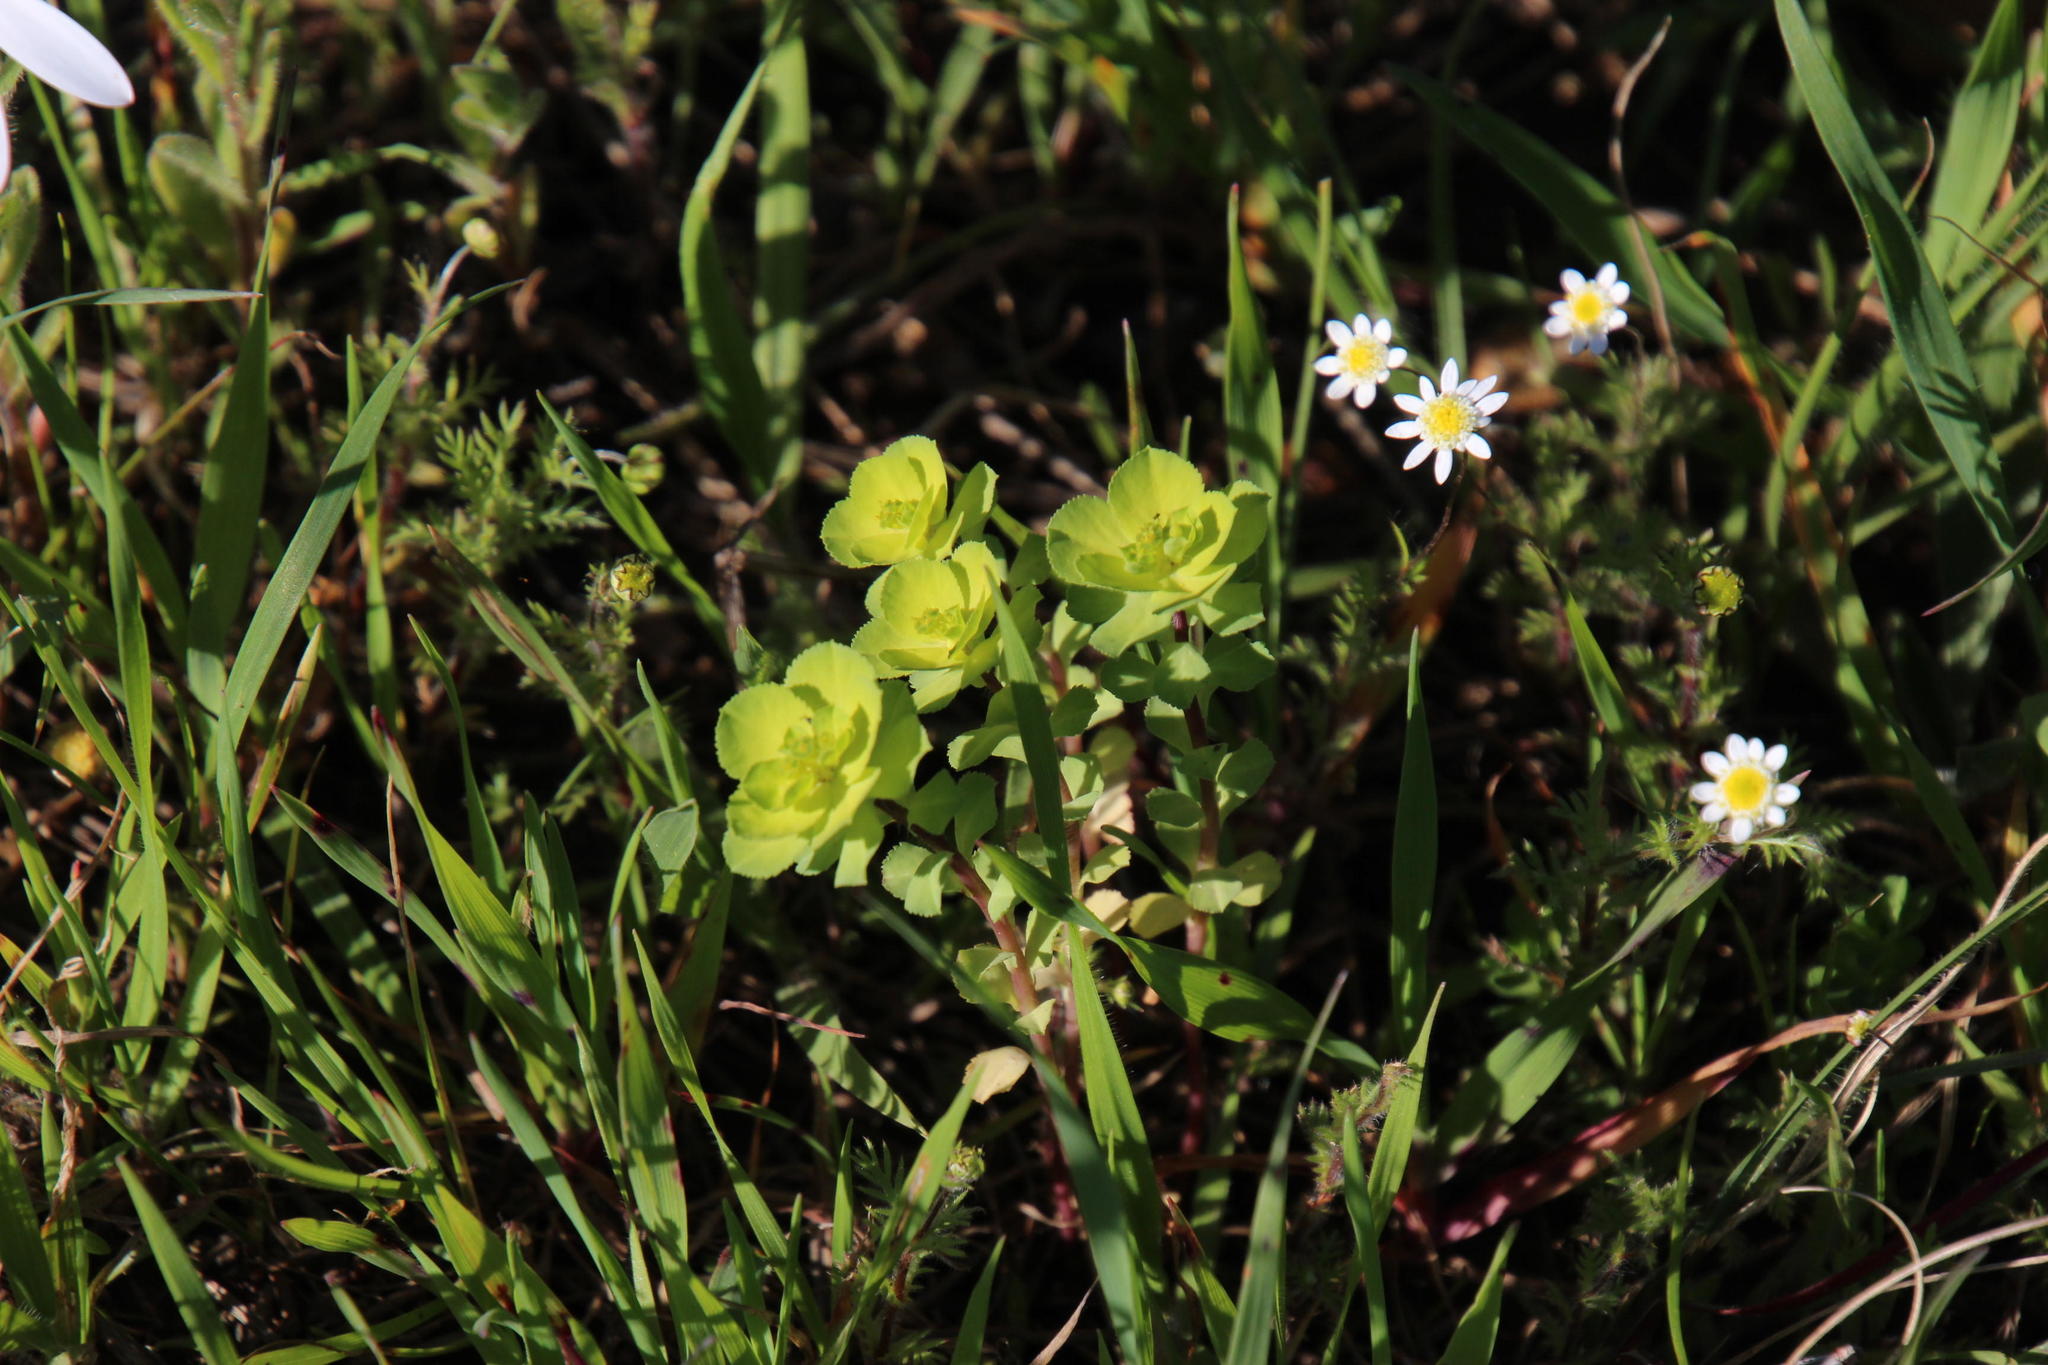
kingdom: Plantae
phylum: Tracheophyta
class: Magnoliopsida
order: Malpighiales
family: Euphorbiaceae
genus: Euphorbia
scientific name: Euphorbia helioscopia
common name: Sun spurge
